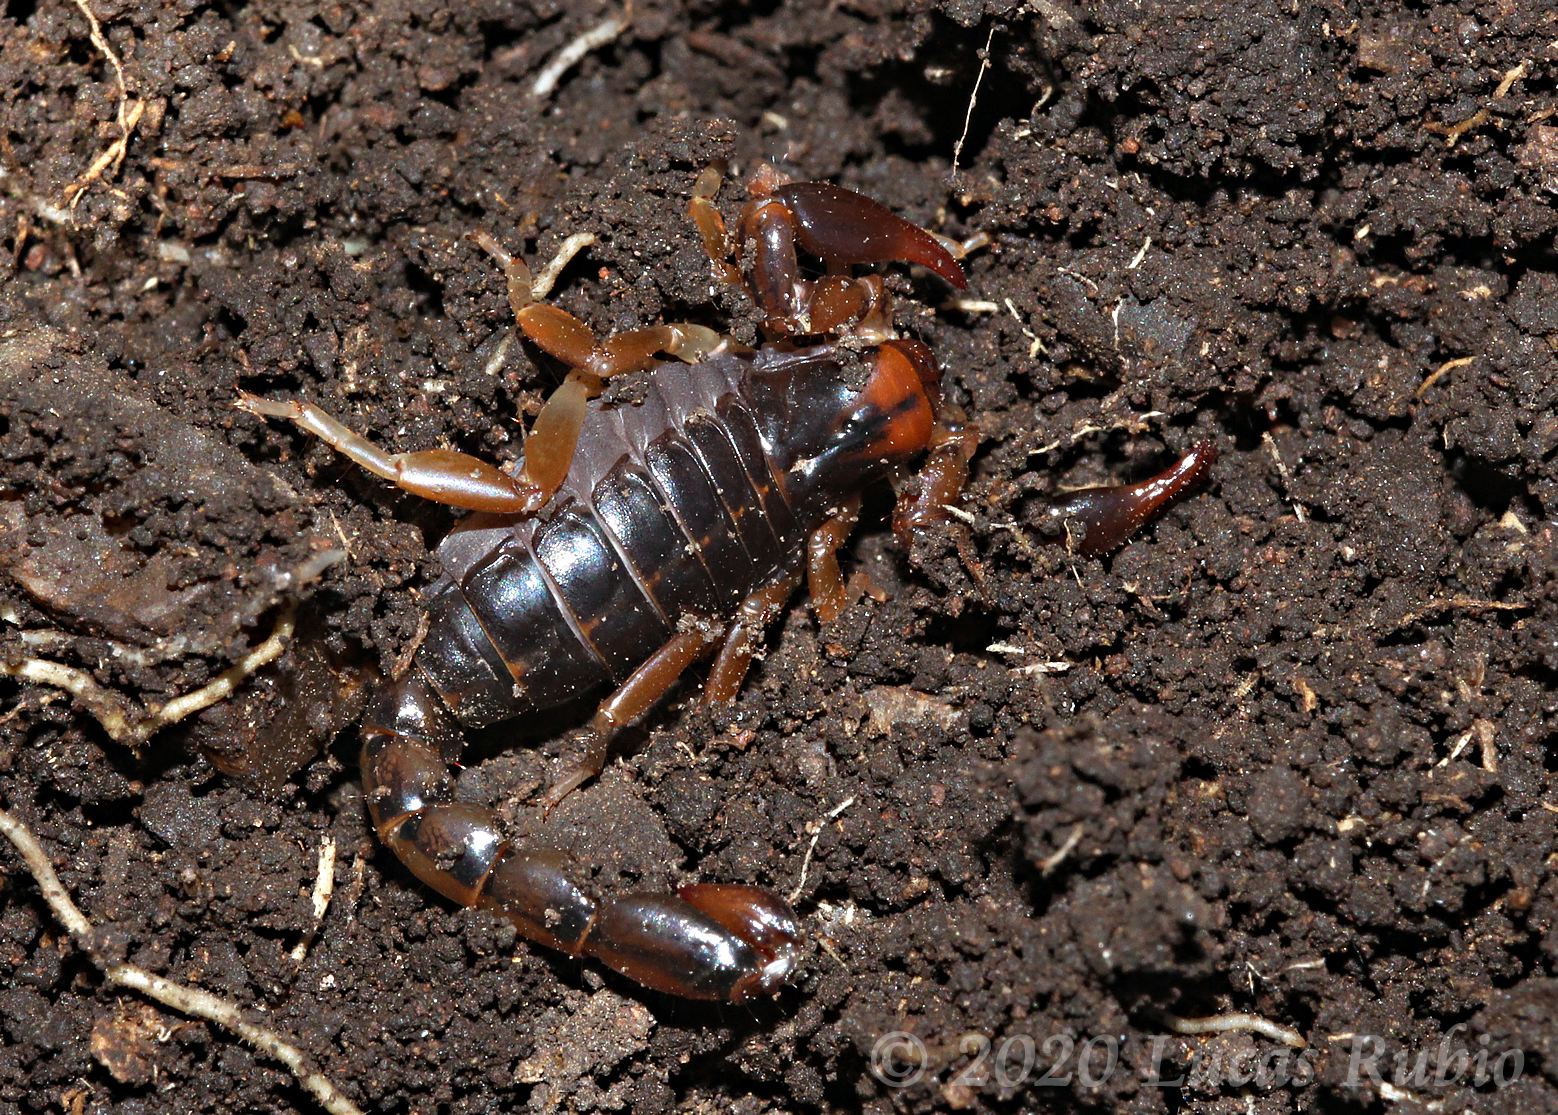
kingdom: Animalia
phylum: Arthropoda
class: Arachnida
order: Scorpiones
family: Bothriuridae
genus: Bothriurus
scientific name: Bothriurus bonariensis
